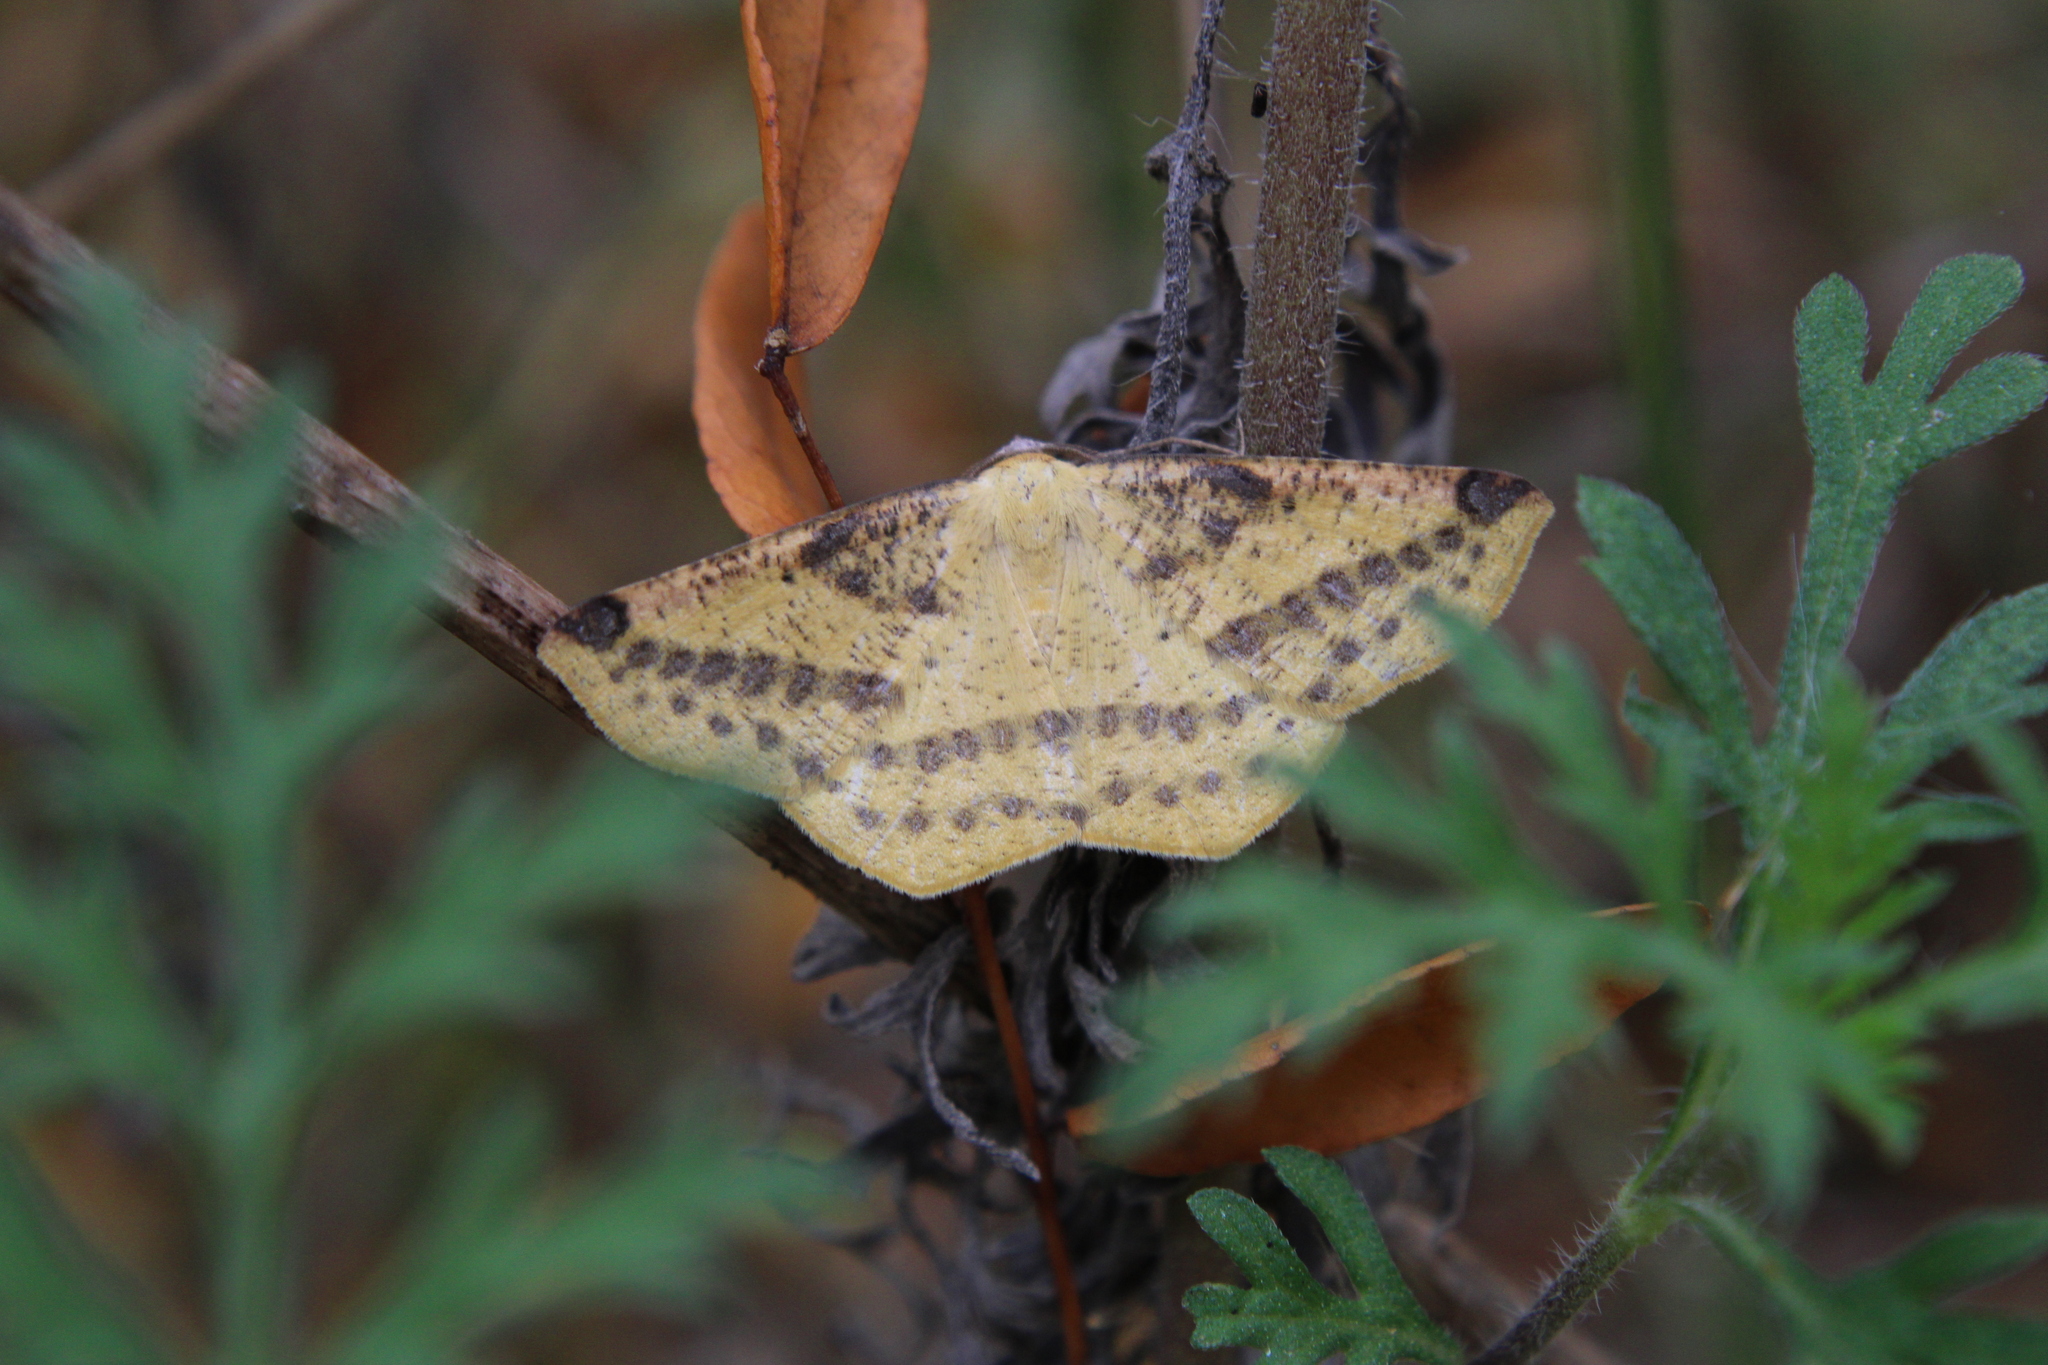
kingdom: Animalia
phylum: Arthropoda
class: Insecta
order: Lepidoptera
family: Geometridae
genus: Microsema
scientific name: Microsema gladiaria
